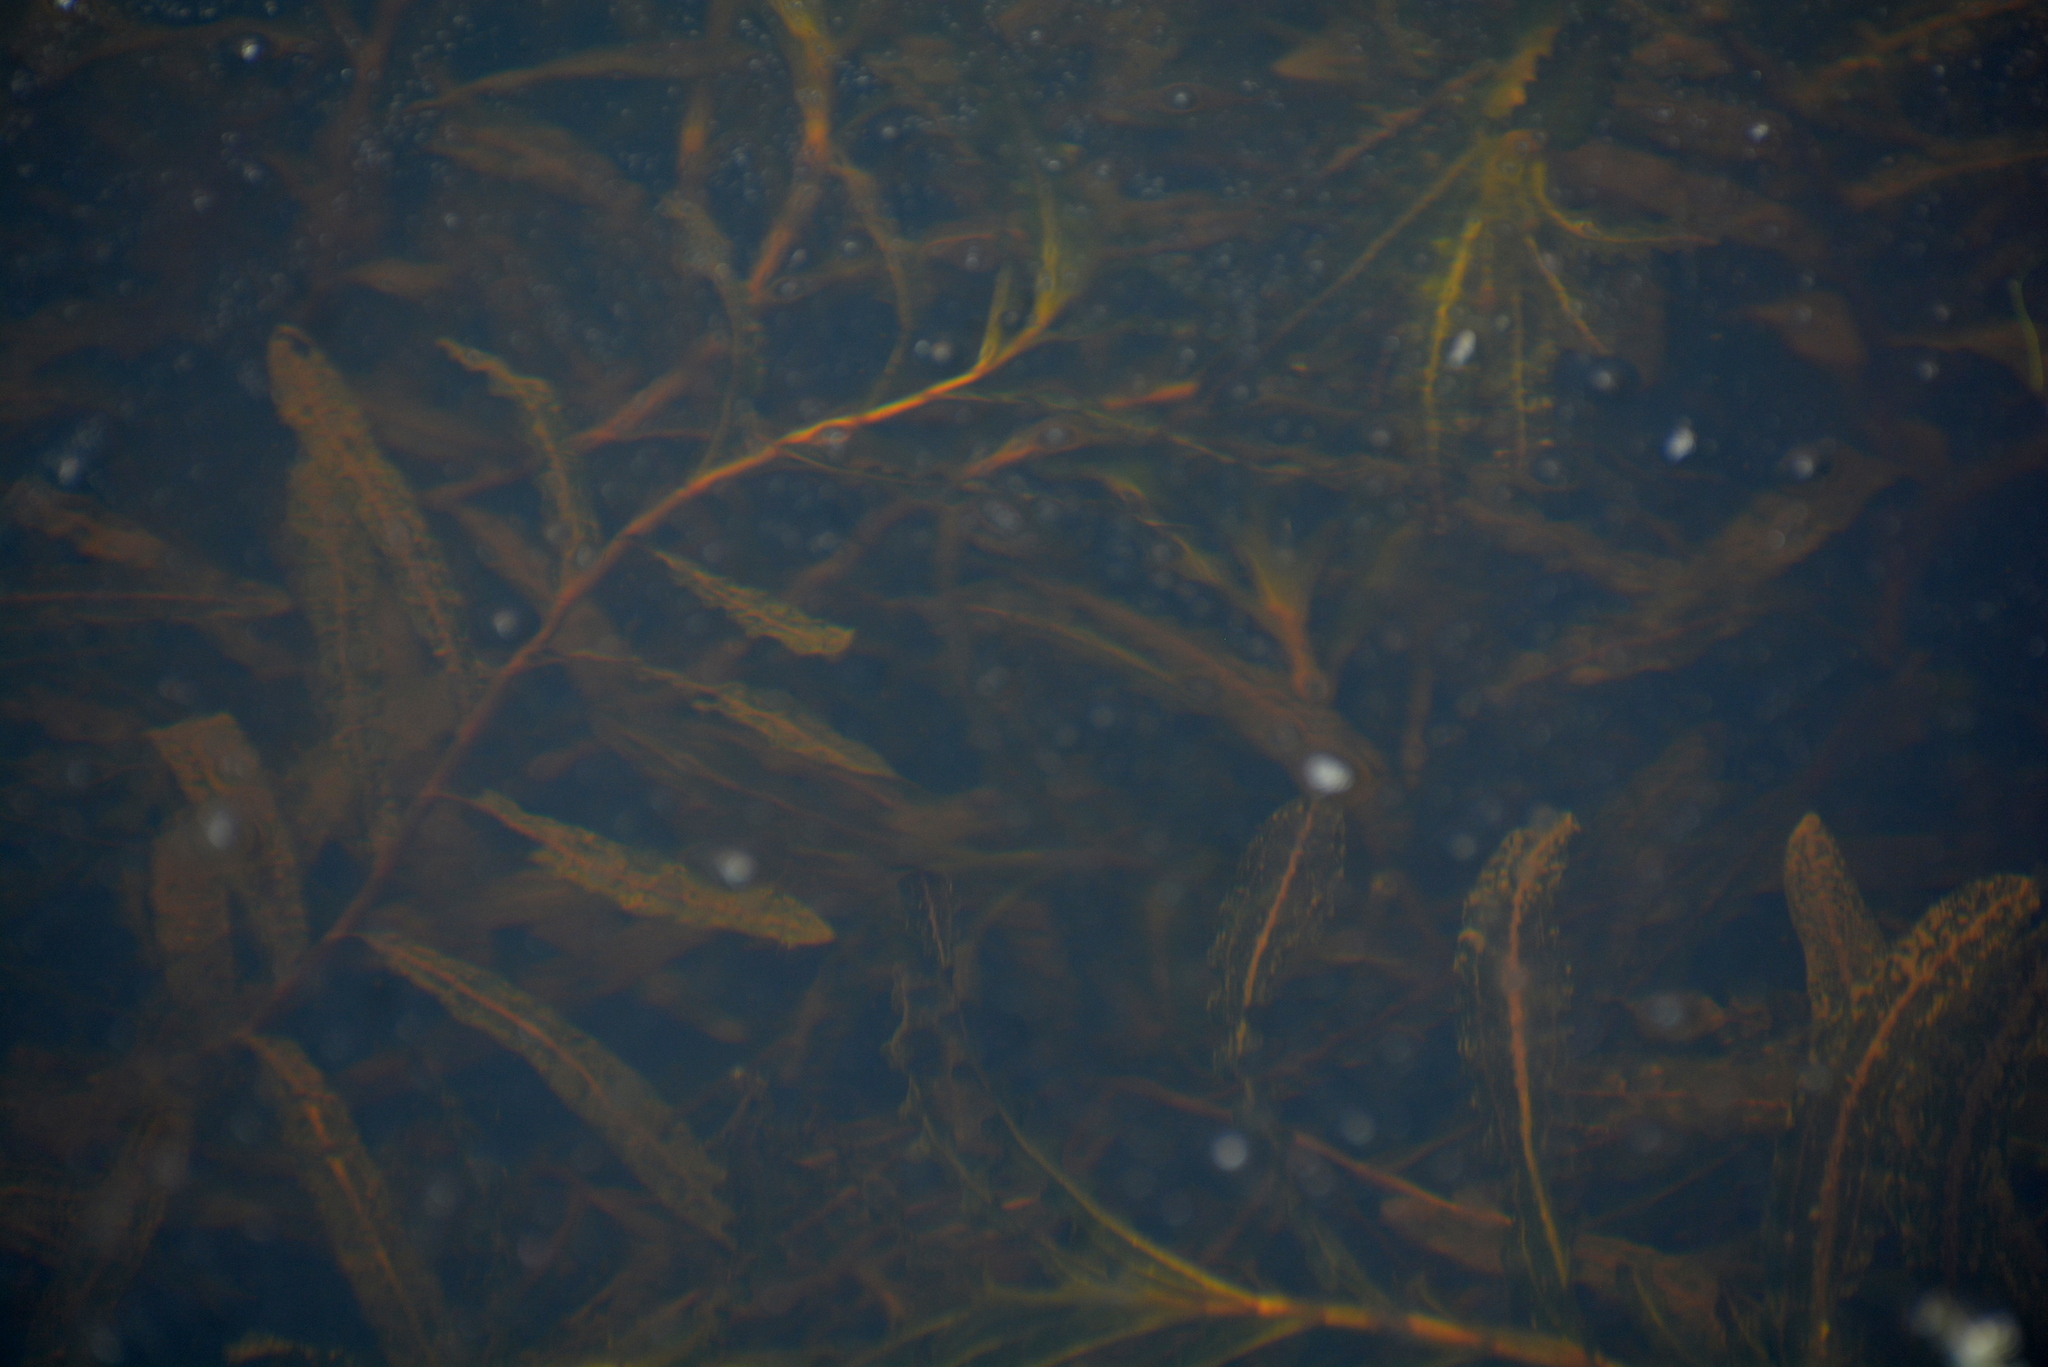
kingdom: Plantae
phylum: Tracheophyta
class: Liliopsida
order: Alismatales
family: Potamogetonaceae
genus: Potamogeton
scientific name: Potamogeton crispus
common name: Curled pondweed
